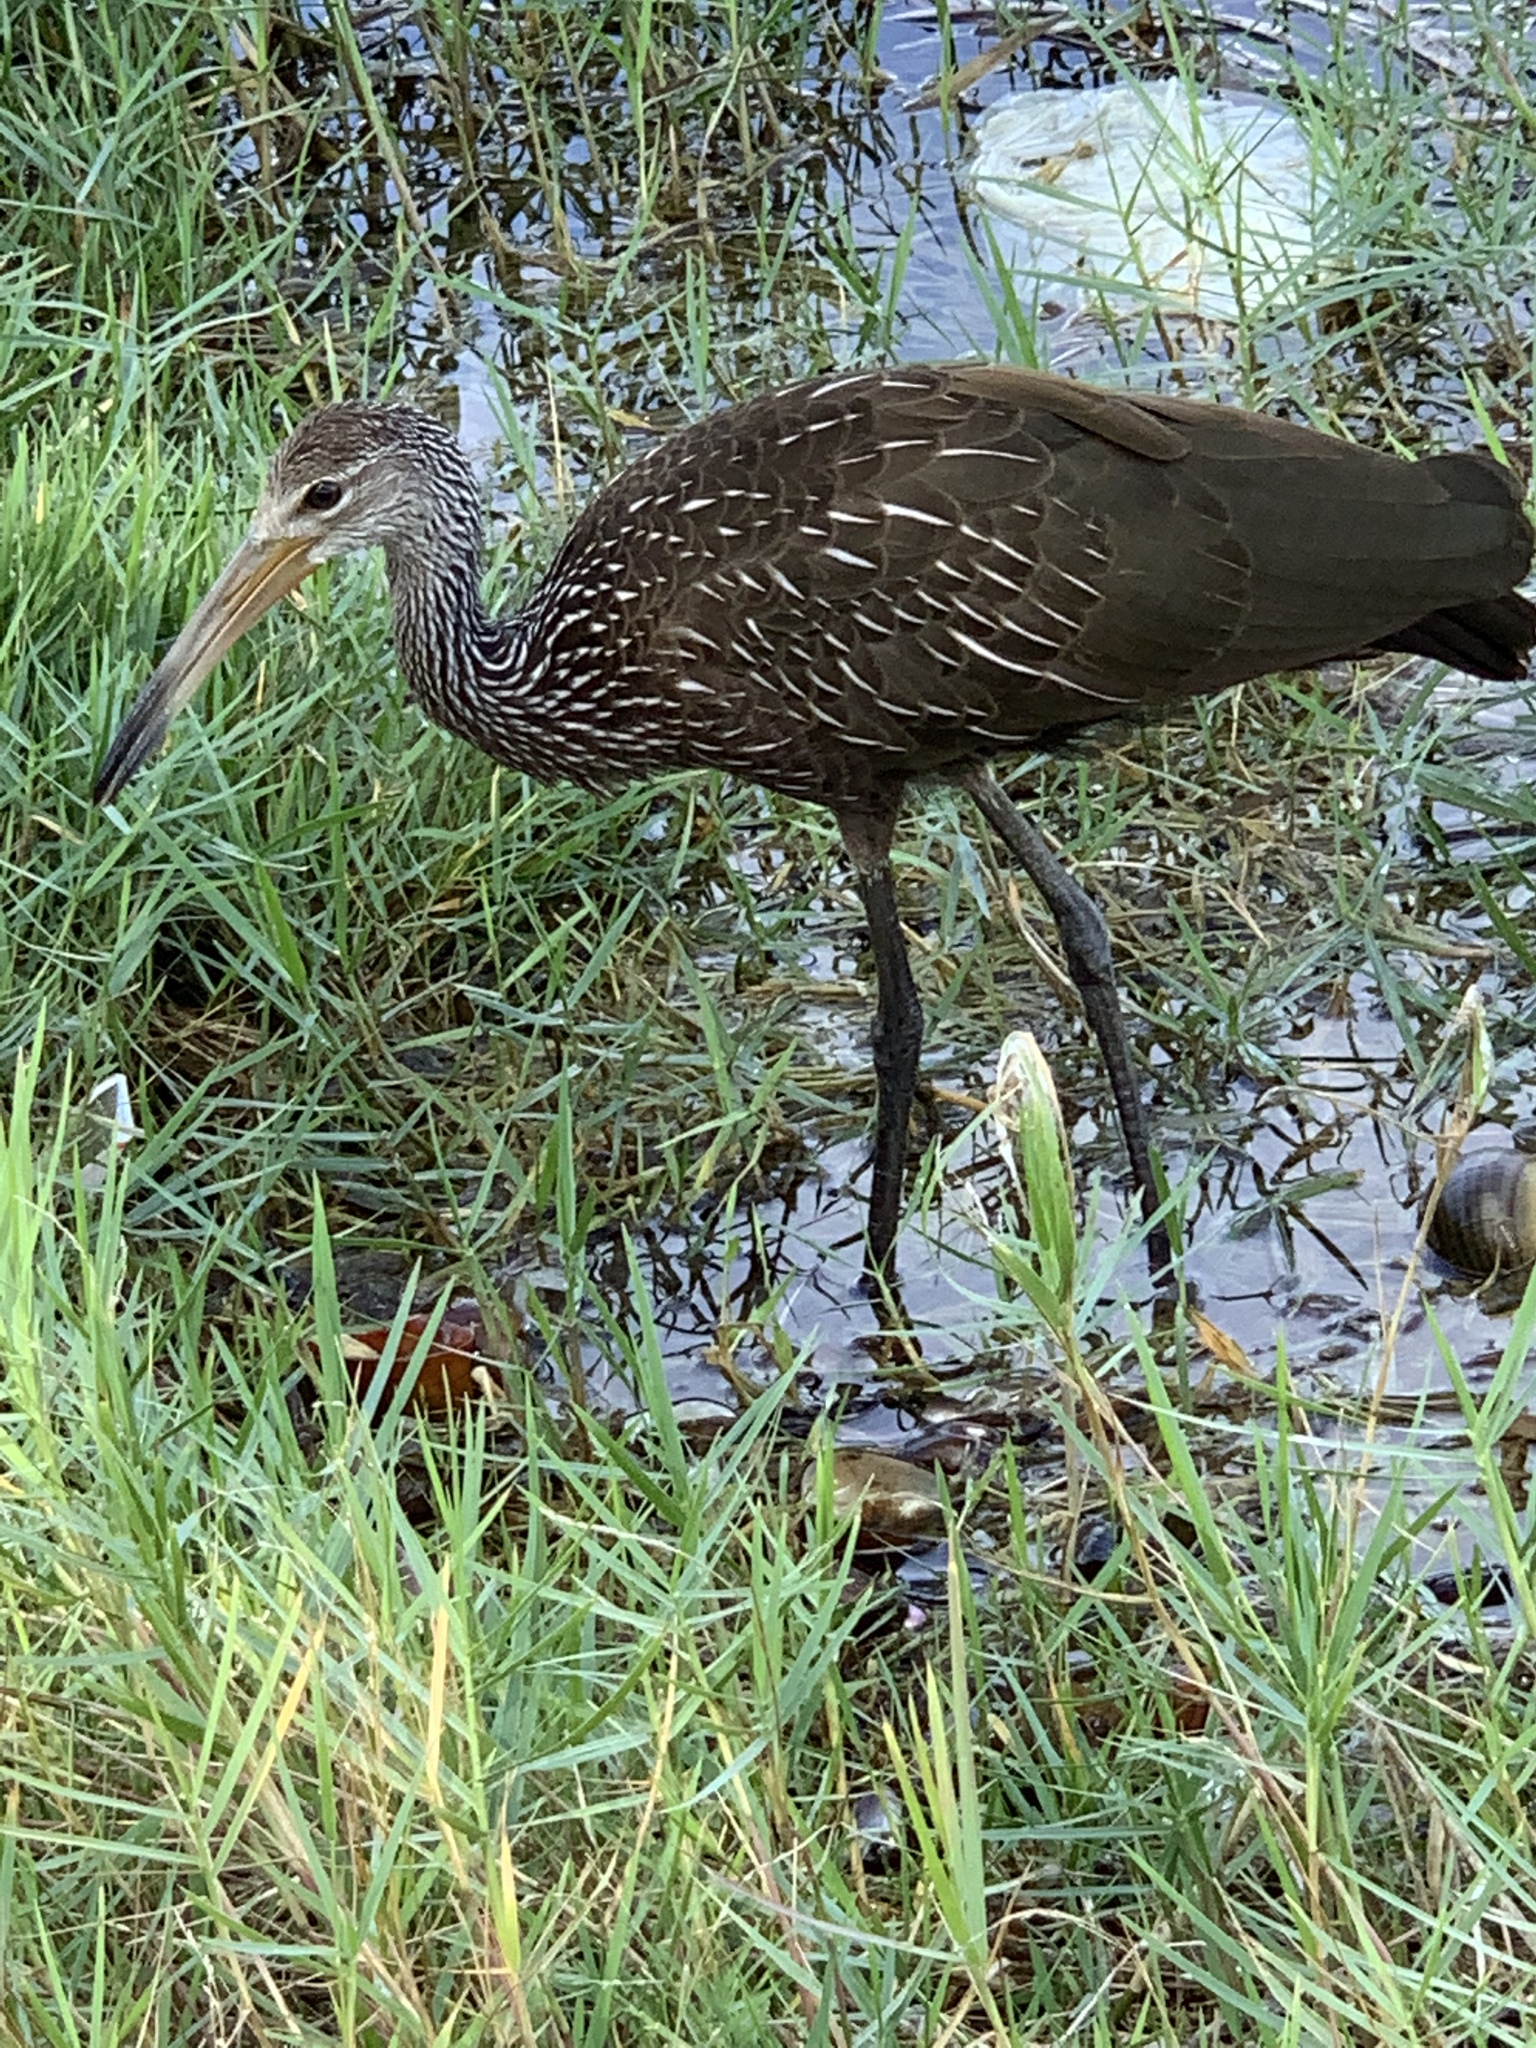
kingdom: Animalia
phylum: Chordata
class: Aves
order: Gruiformes
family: Aramidae
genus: Aramus
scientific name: Aramus guarauna
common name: Limpkin
